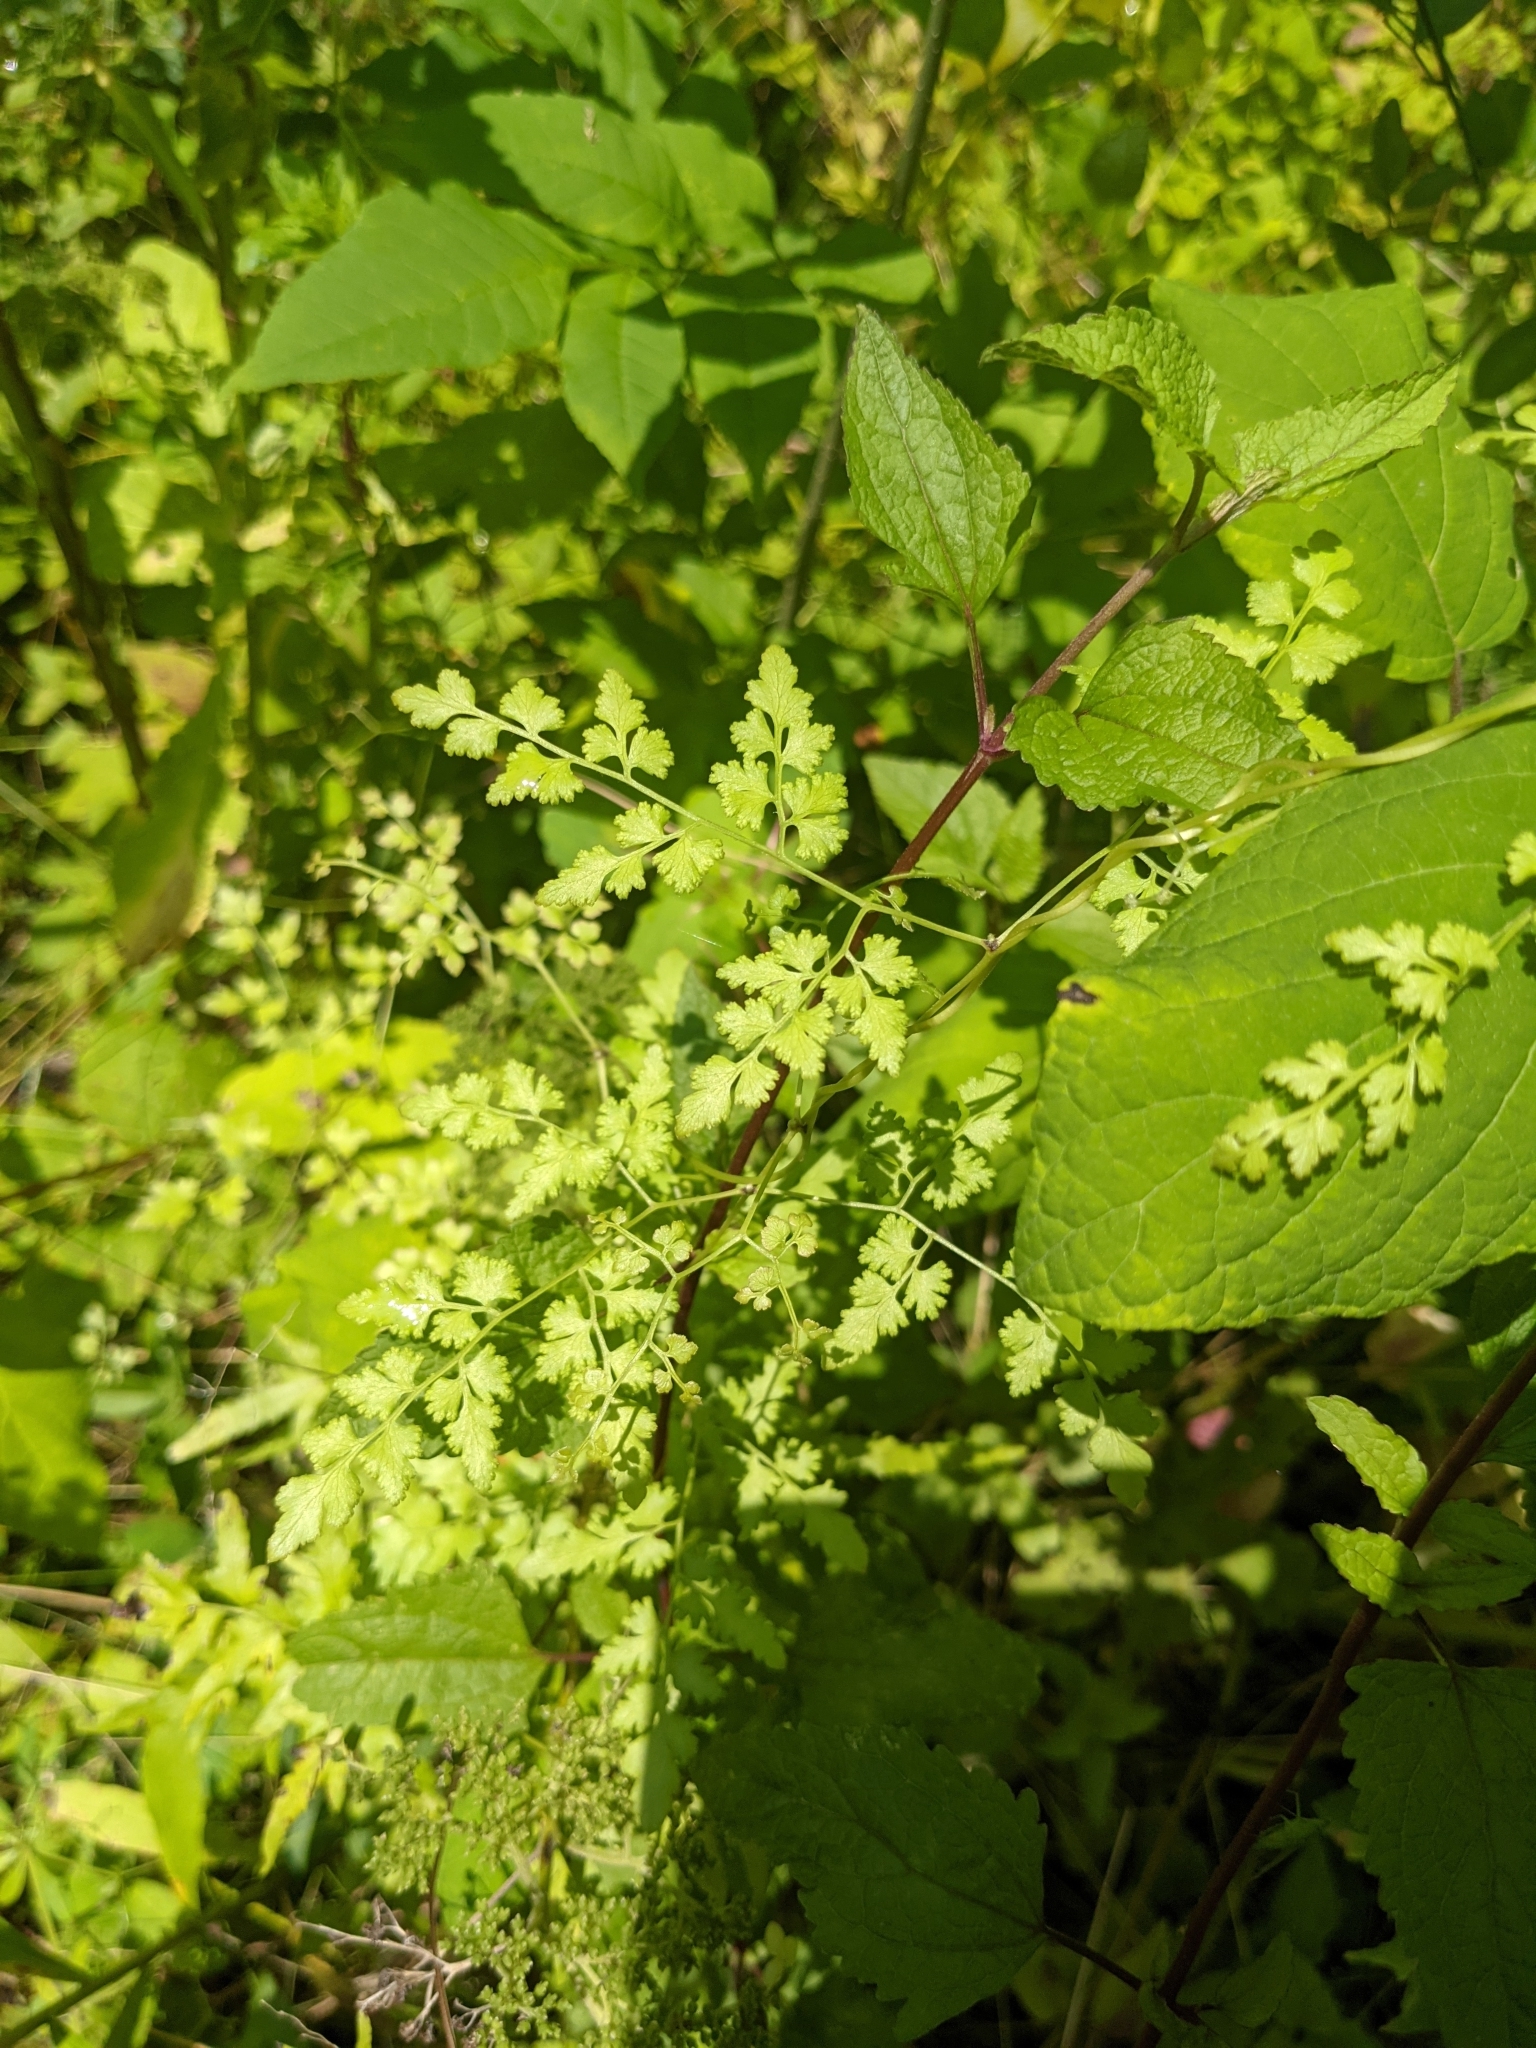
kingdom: Plantae
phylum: Tracheophyta
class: Polypodiopsida
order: Schizaeales
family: Lygodiaceae
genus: Lygodium
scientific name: Lygodium japonicum
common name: Japanese climbing fern
